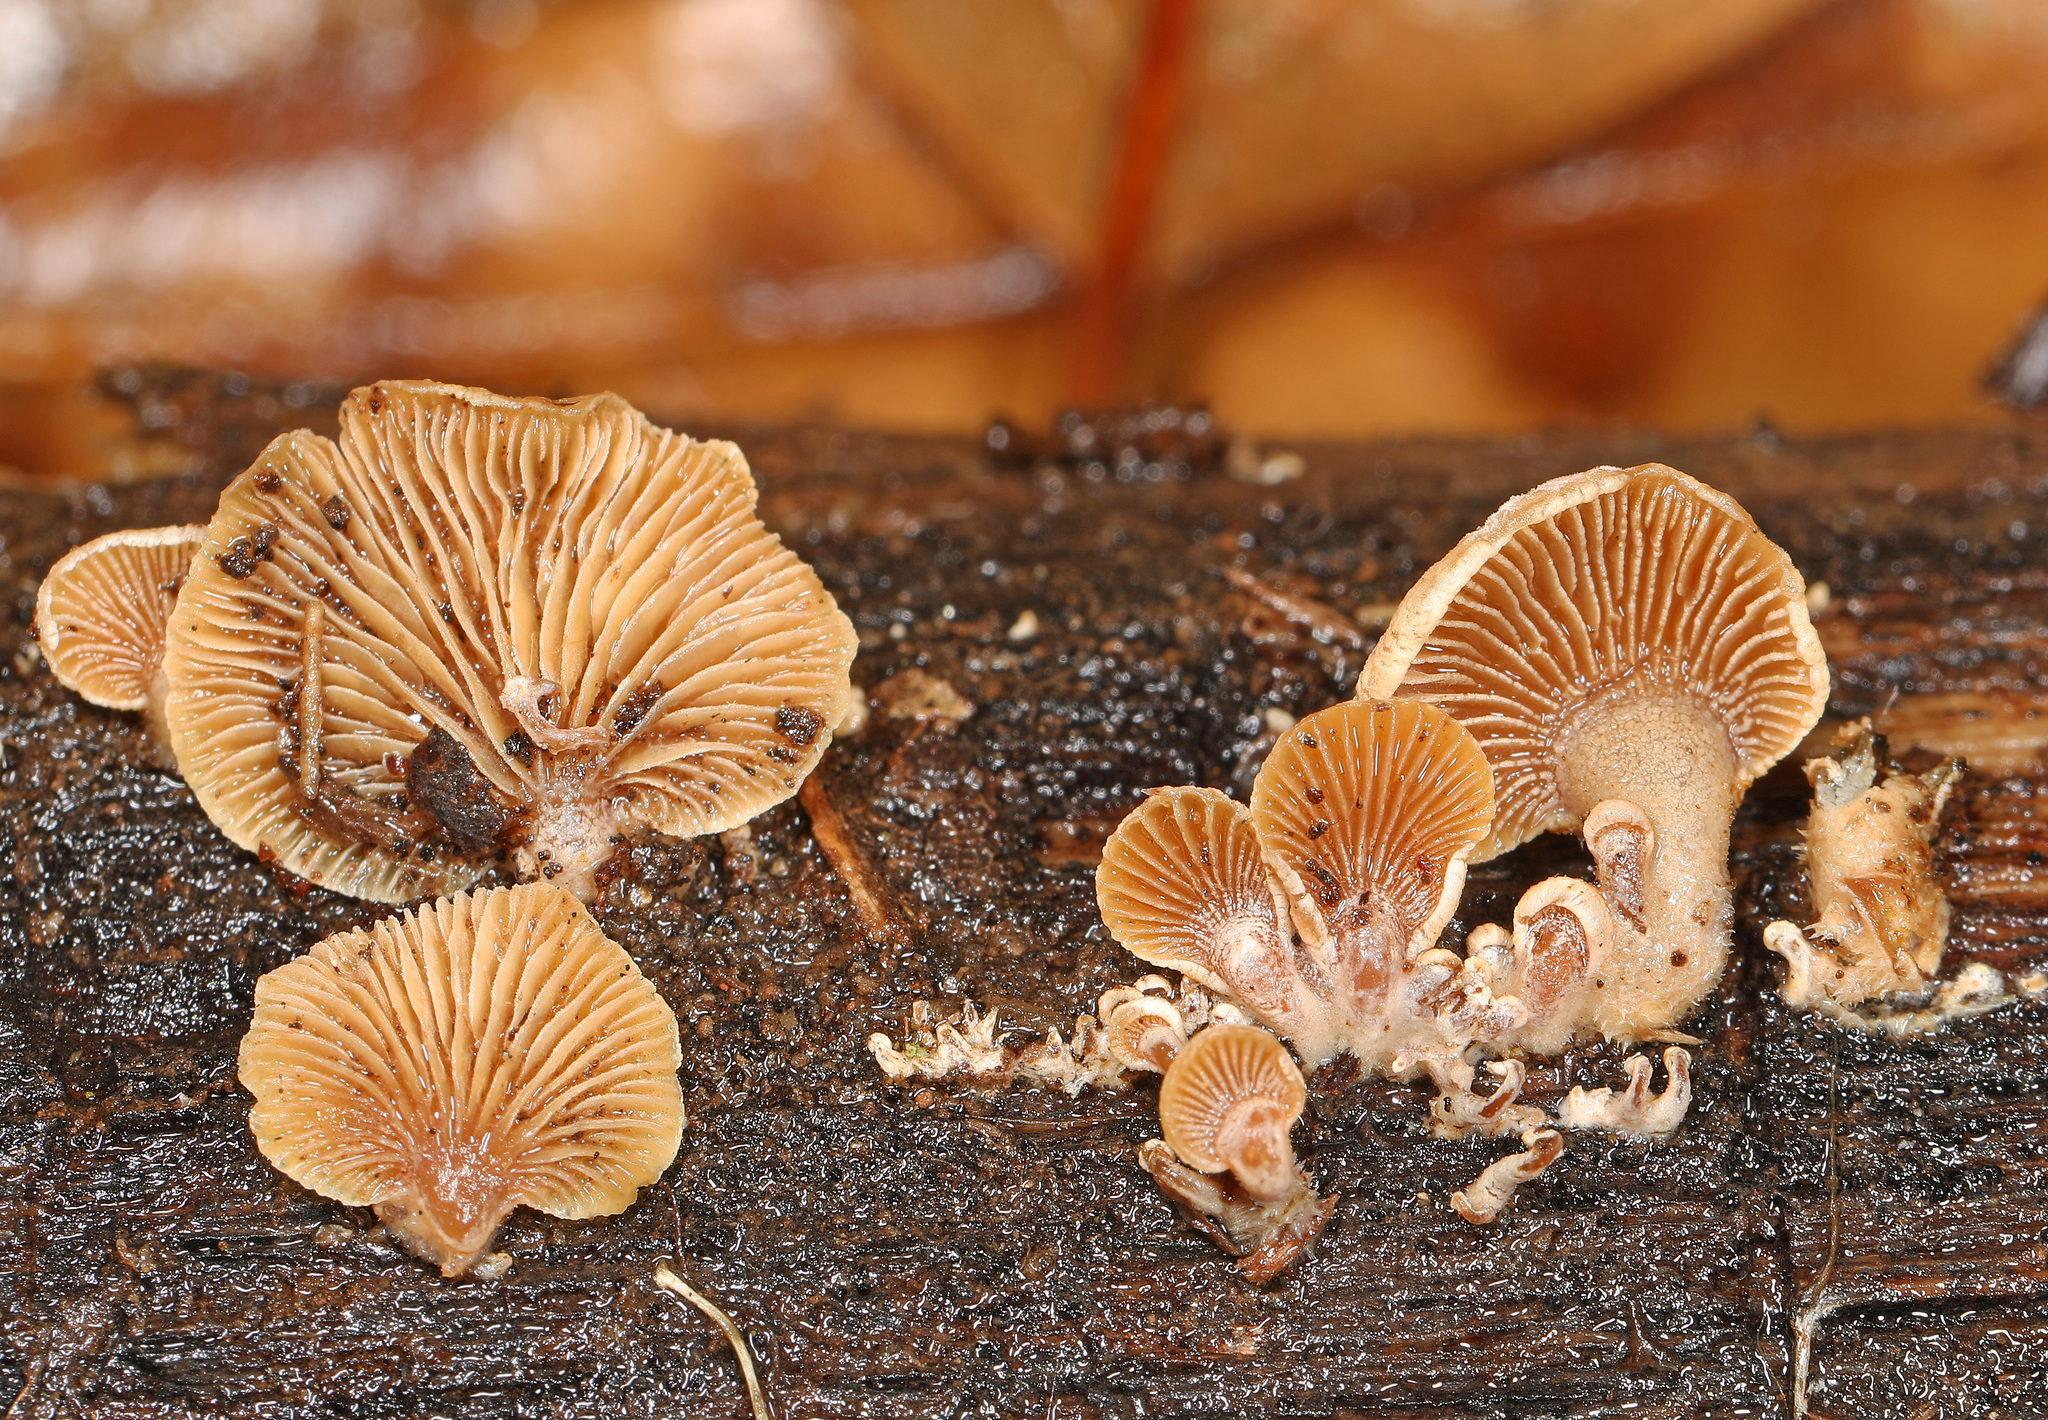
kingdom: Fungi
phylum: Basidiomycota
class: Agaricomycetes
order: Agaricales
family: Mycenaceae
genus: Panellus
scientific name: Panellus stipticus
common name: Bitter oysterling
